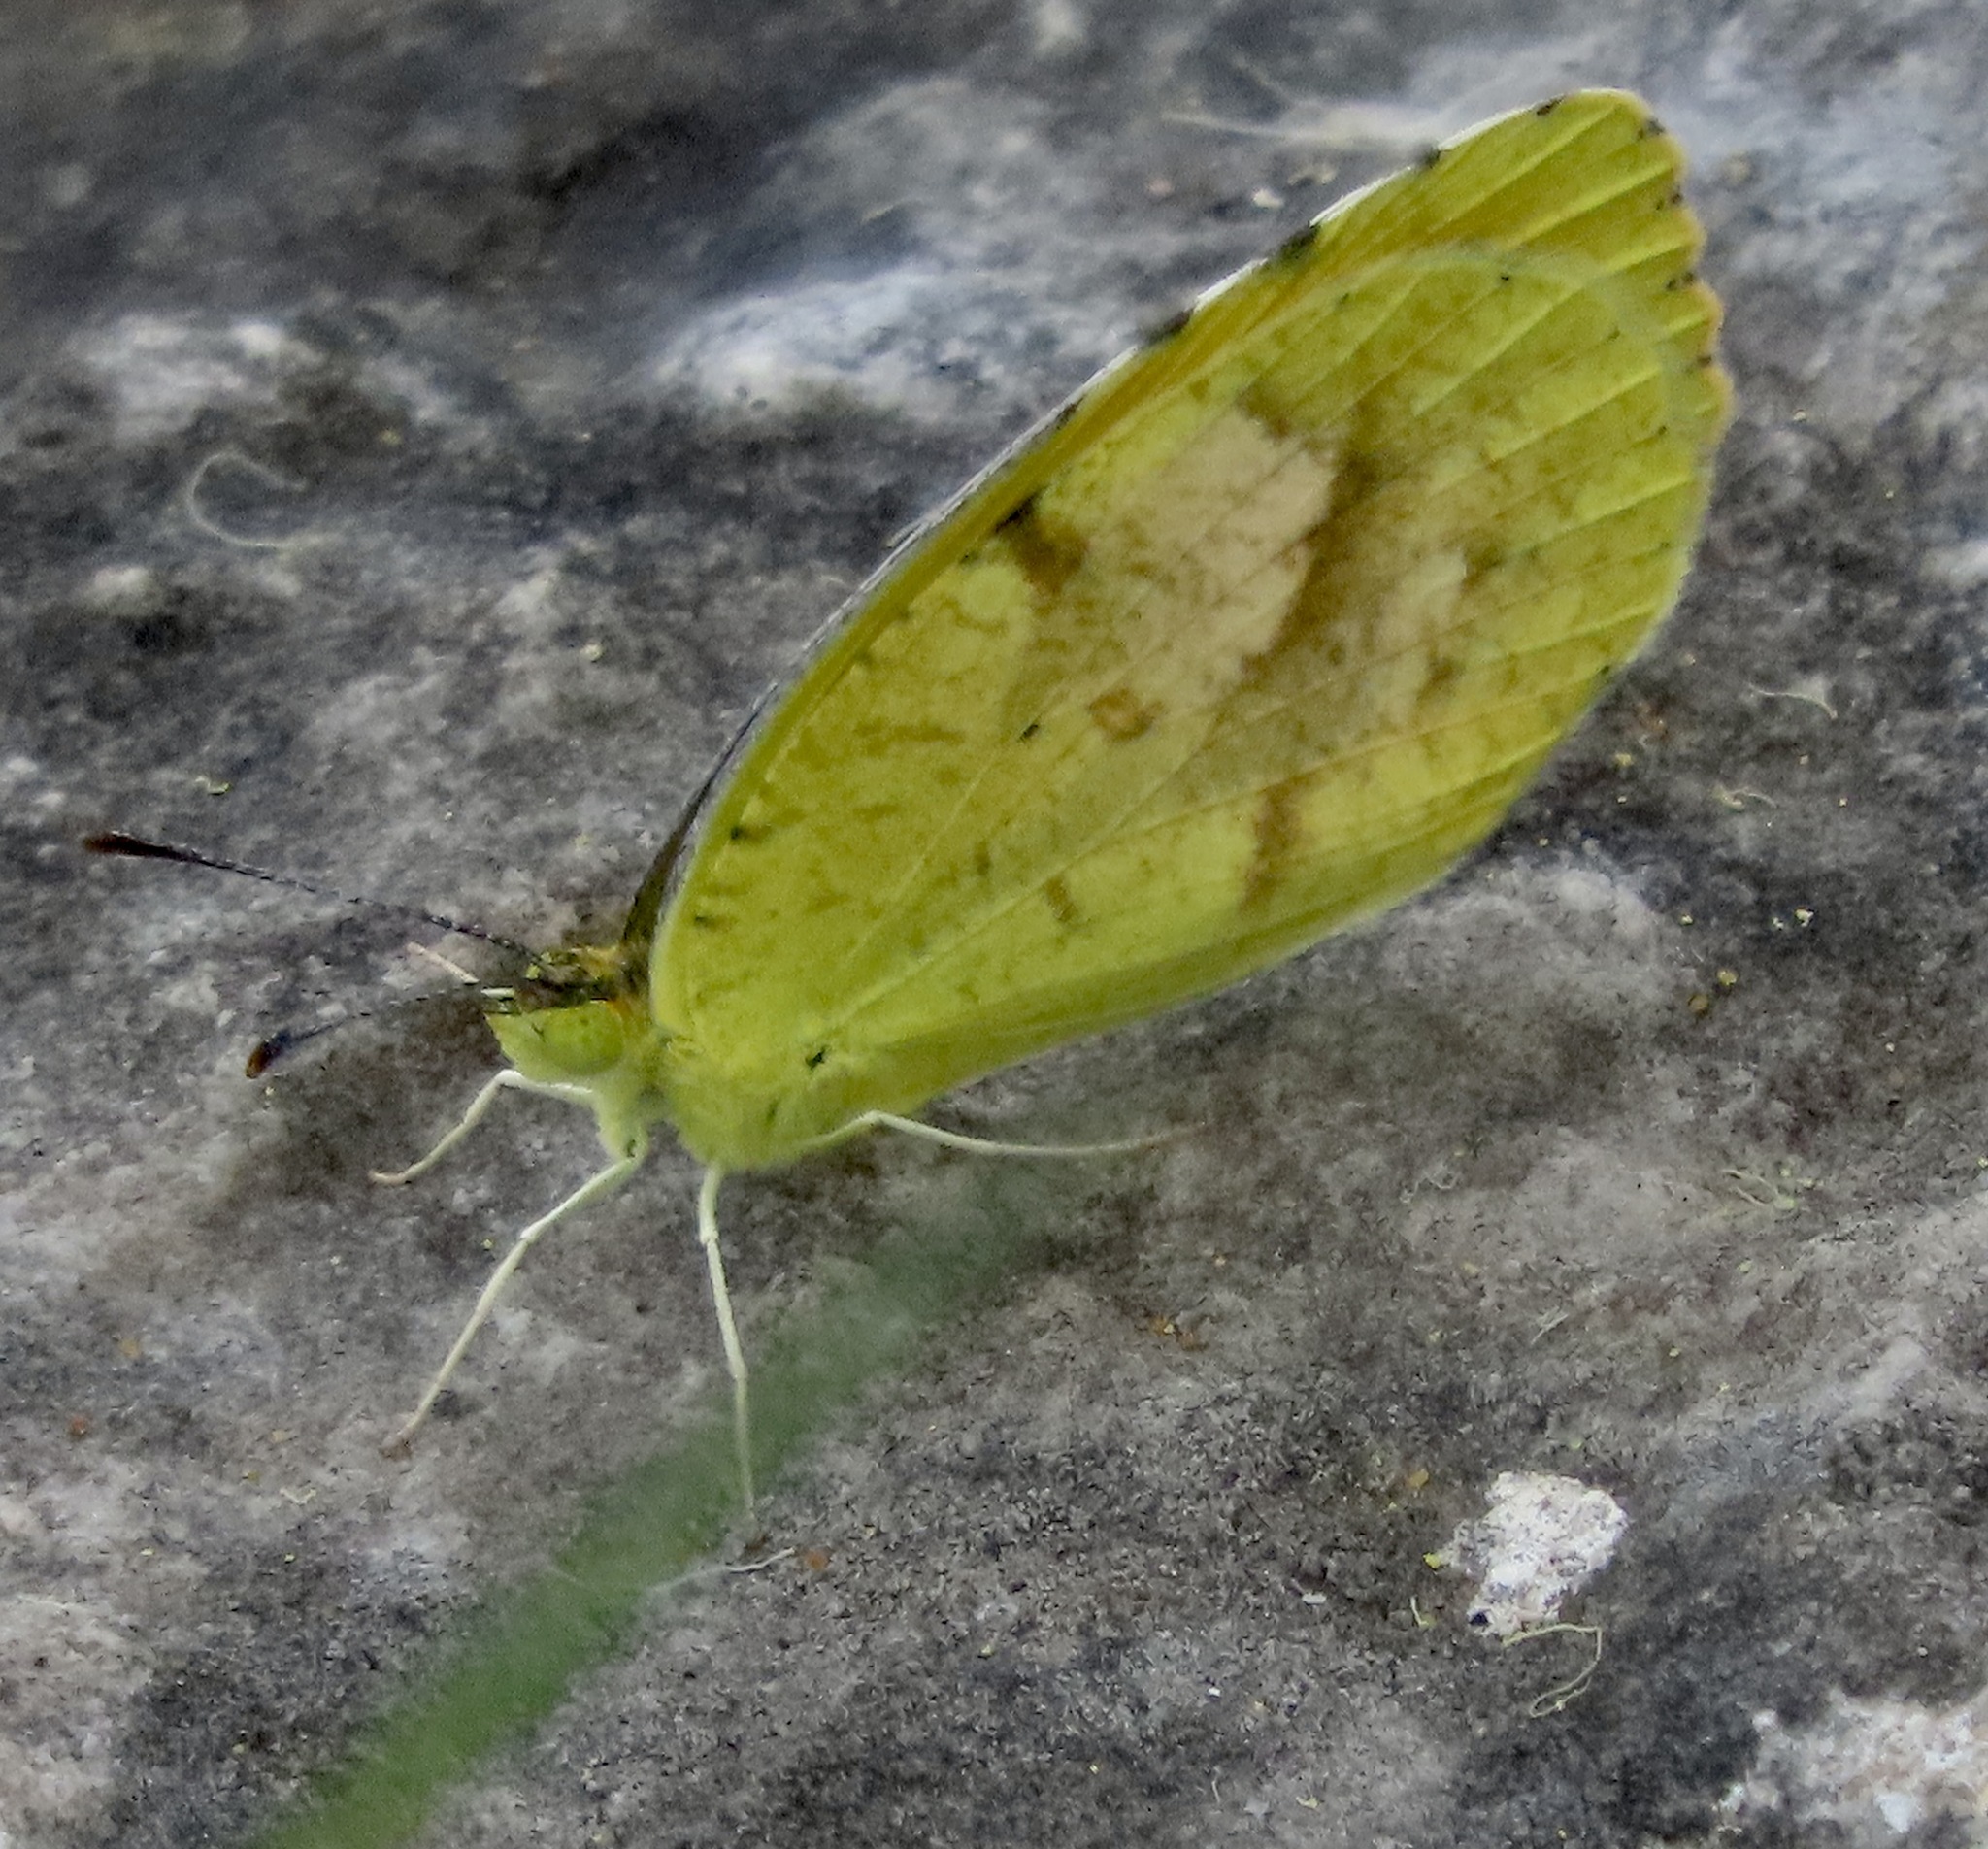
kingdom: Animalia
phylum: Arthropoda
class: Insecta
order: Lepidoptera
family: Pieridae
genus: Abaeis
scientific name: Abaeis nicippe
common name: Sleepy orange
